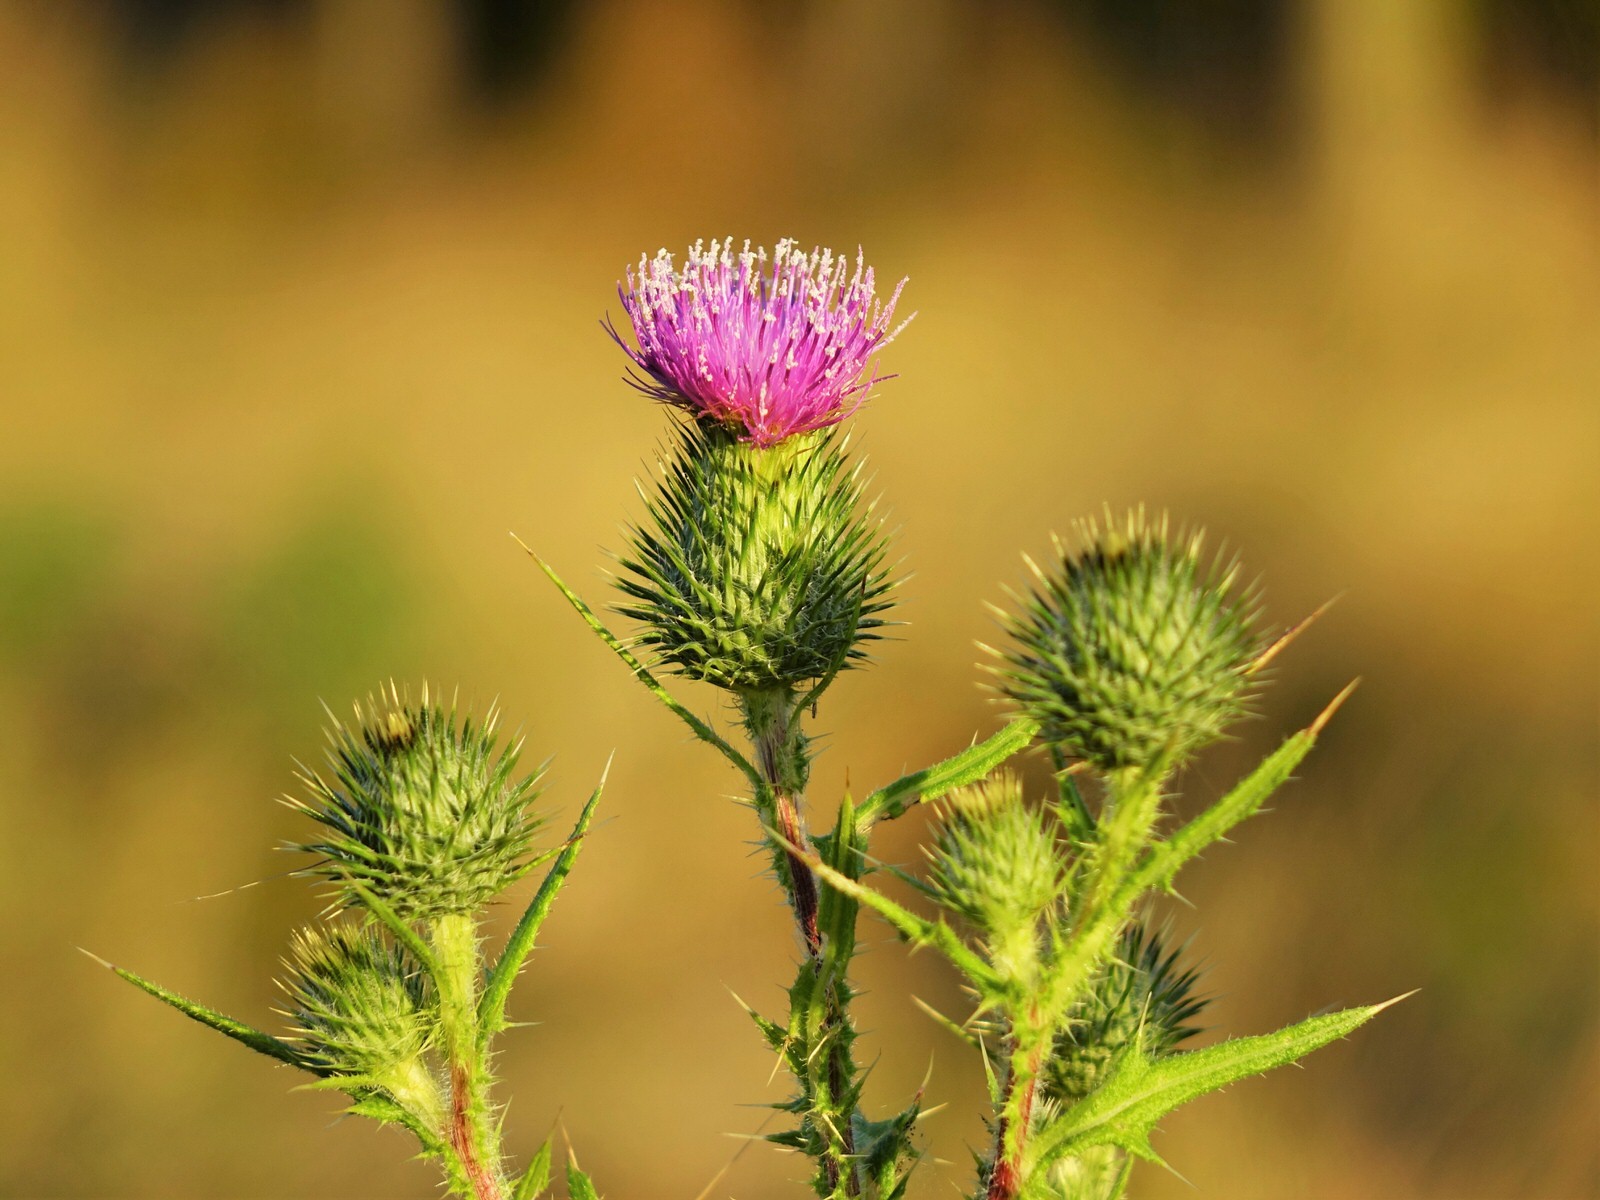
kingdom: Plantae
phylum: Tracheophyta
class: Magnoliopsida
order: Asterales
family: Asteraceae
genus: Cirsium
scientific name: Cirsium vulgare
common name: Bull thistle
